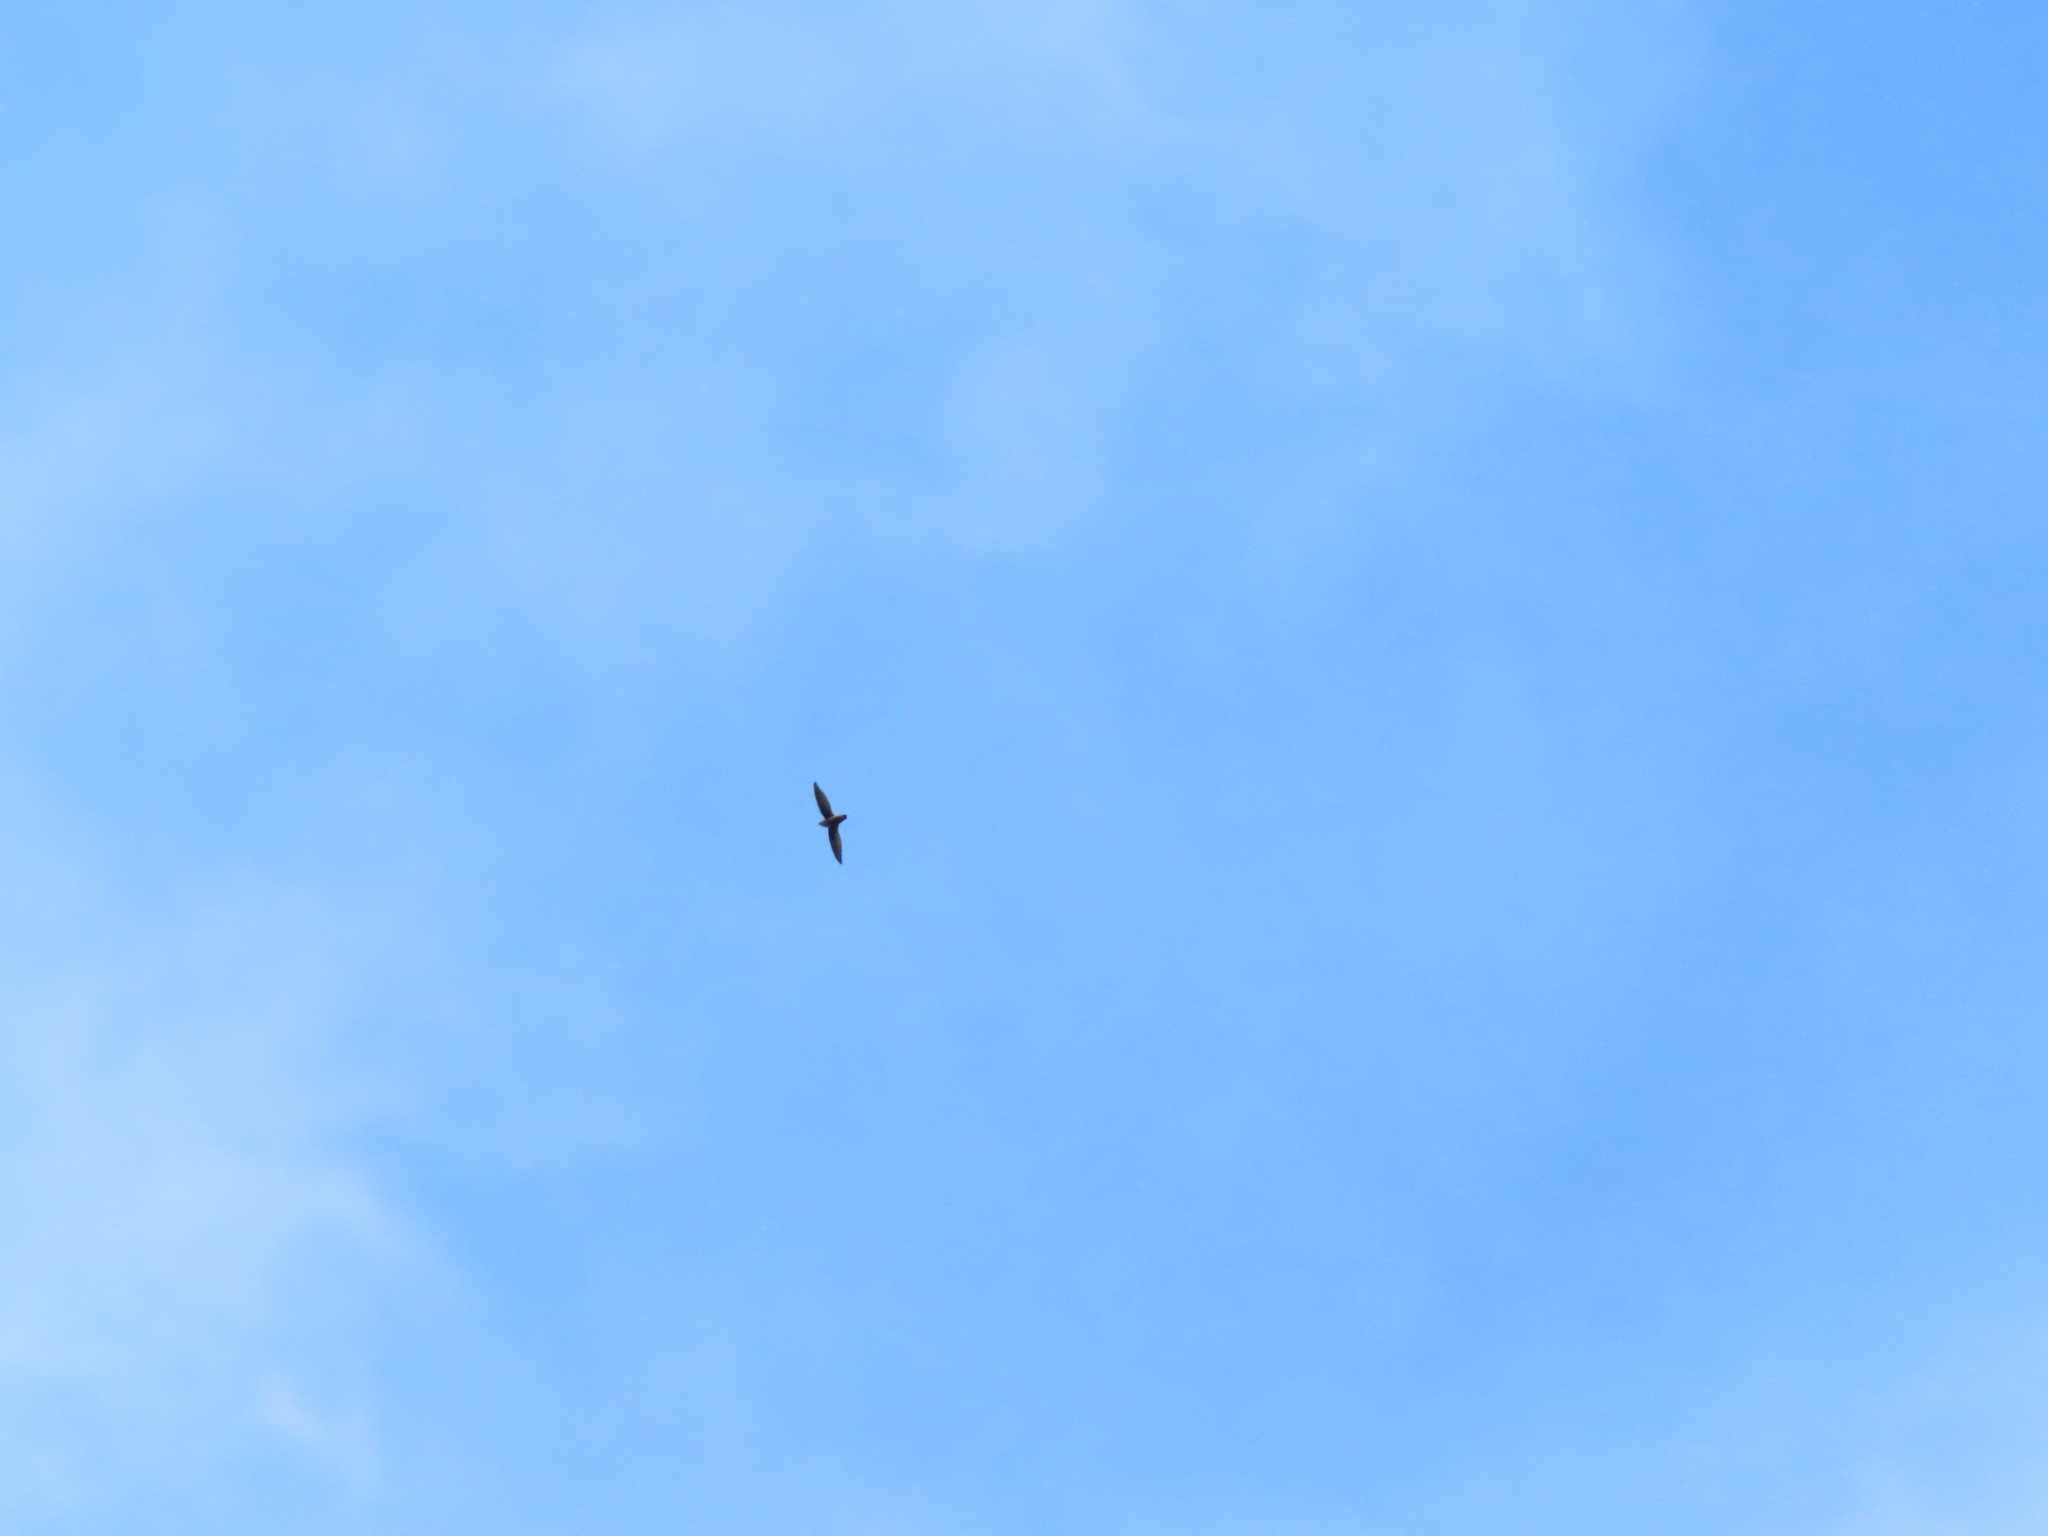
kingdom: Animalia
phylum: Chordata
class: Aves
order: Apodiformes
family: Apodidae
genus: Chaetura
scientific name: Chaetura pelagica
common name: Chimney swift
